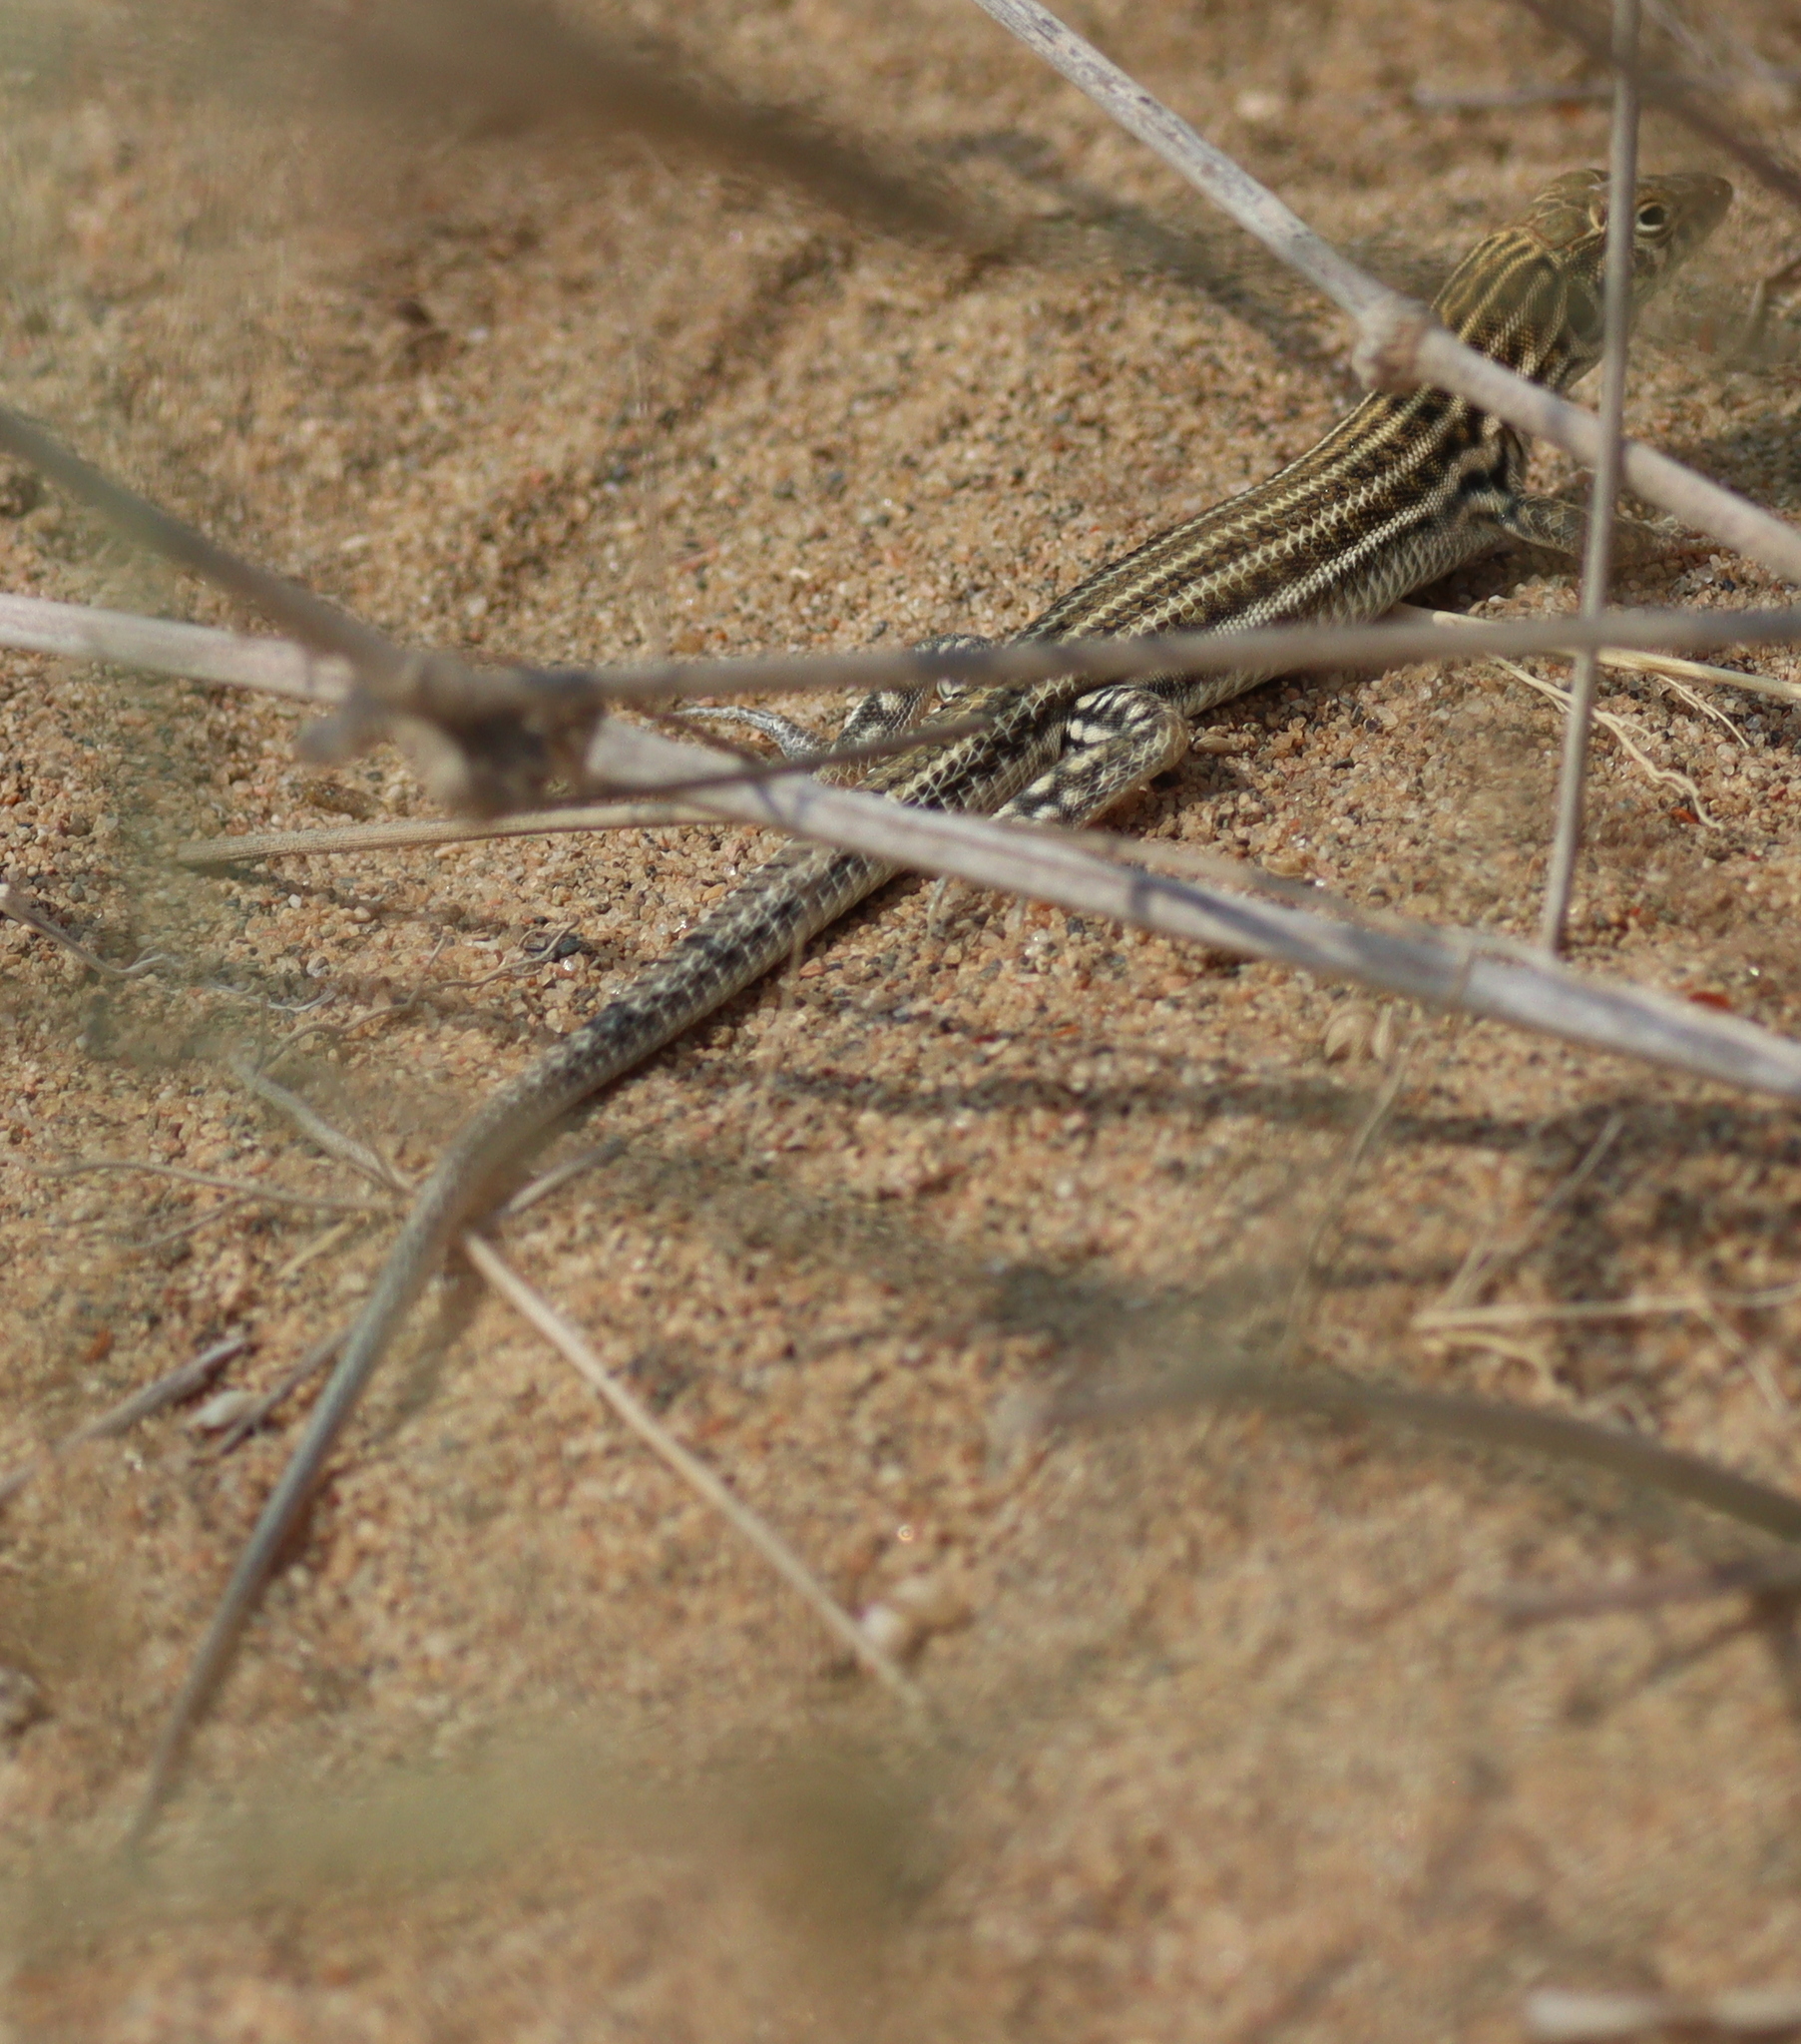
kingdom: Animalia
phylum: Chordata
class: Squamata
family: Lacertidae
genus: Acanthodactylus
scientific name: Acanthodactylus boskianus
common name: Bosc’s fringe-toed lizard
